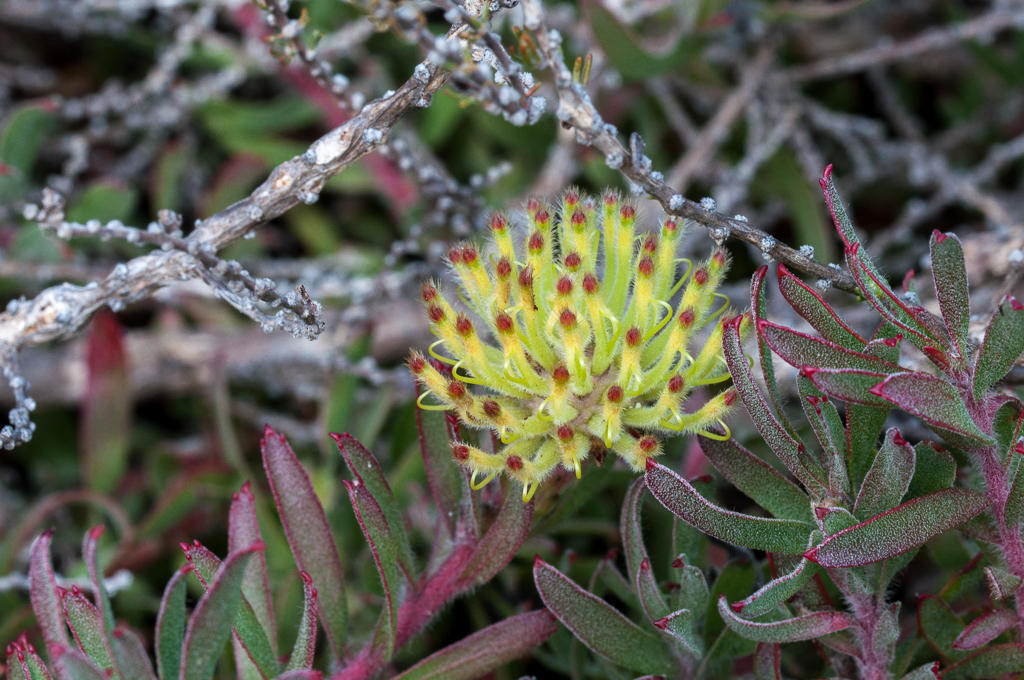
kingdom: Plantae
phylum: Tracheophyta
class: Magnoliopsida
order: Proteales
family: Proteaceae
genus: Leucospermum
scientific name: Leucospermum heterophyllum
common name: Trident pincushion
